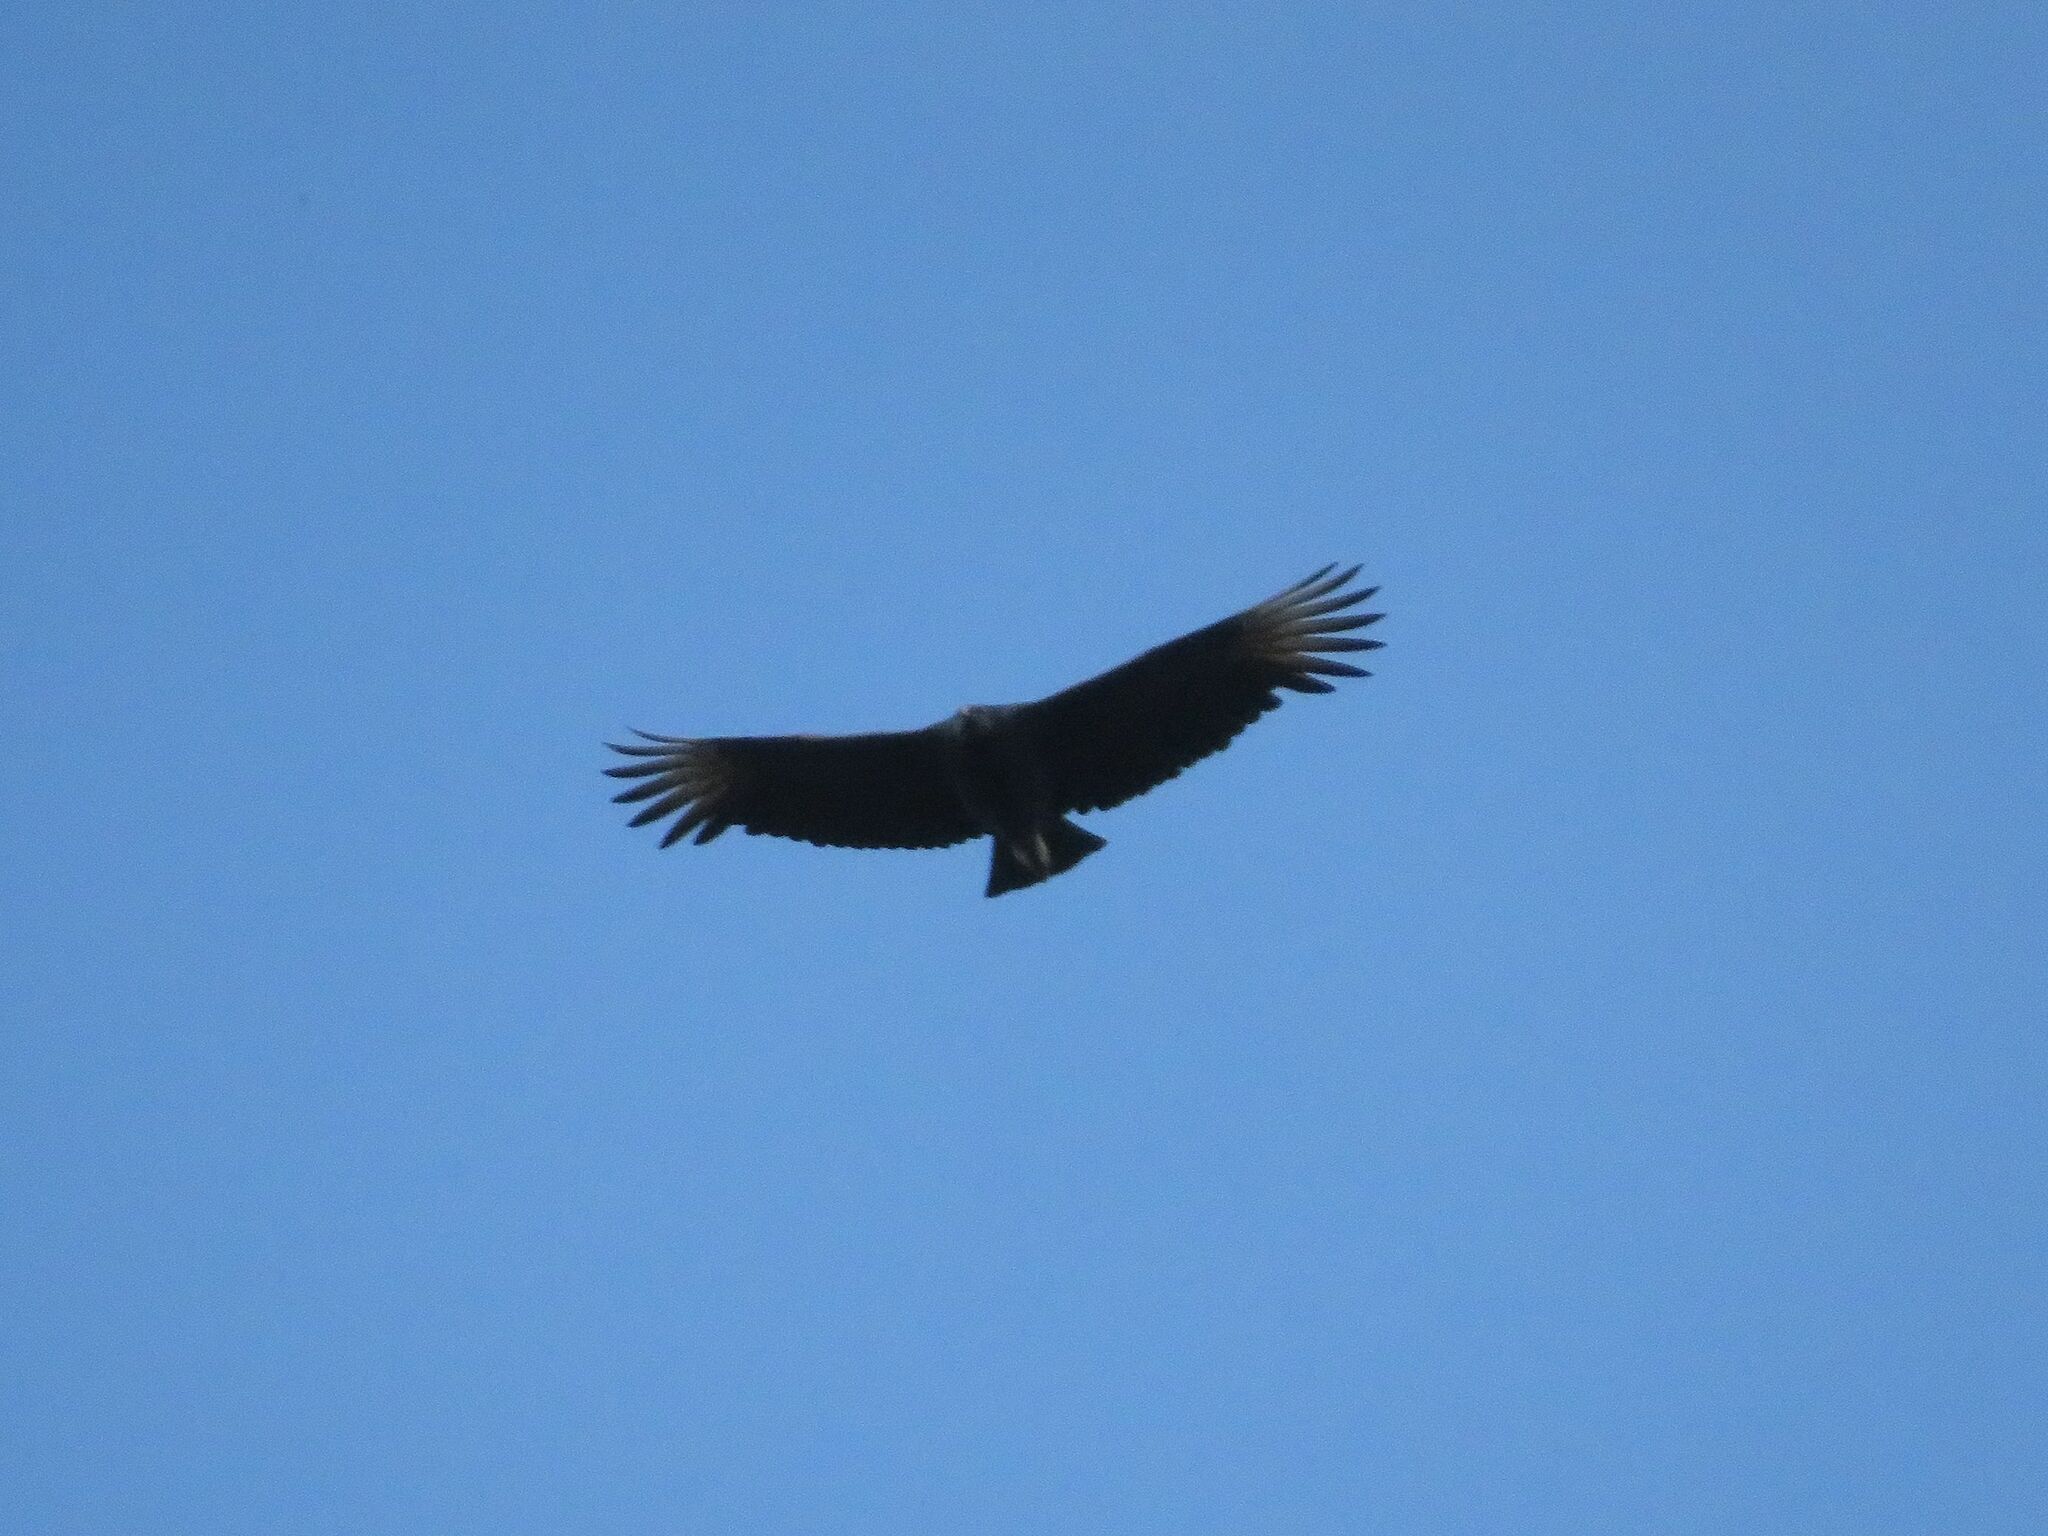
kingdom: Animalia
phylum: Chordata
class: Aves
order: Accipitriformes
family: Cathartidae
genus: Coragyps
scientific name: Coragyps atratus
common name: Black vulture
